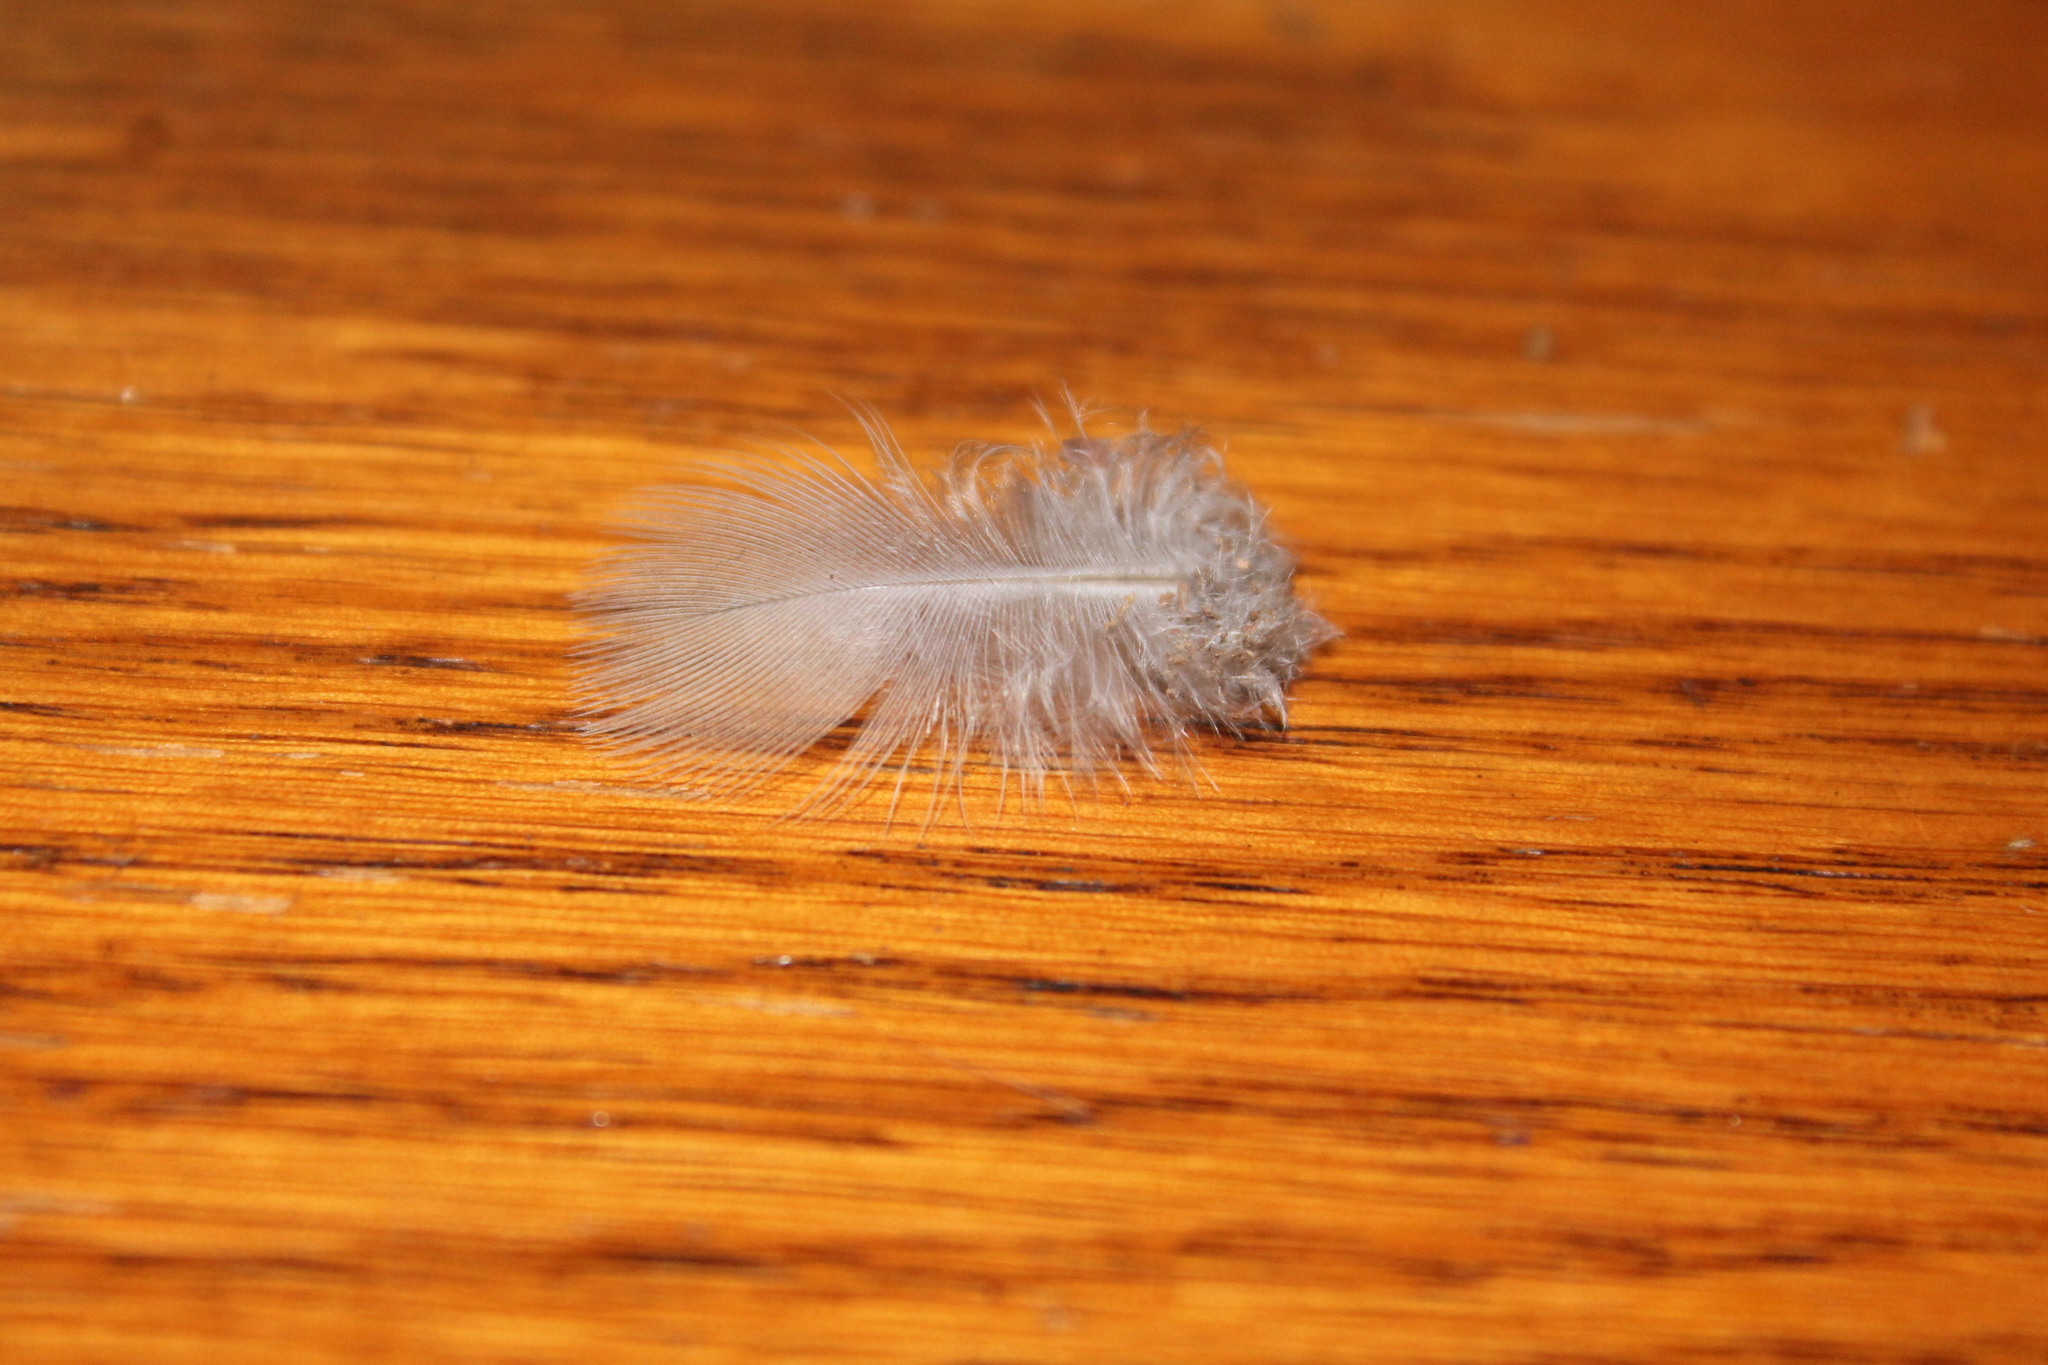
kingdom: Animalia
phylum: Chordata
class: Aves
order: Columbiformes
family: Columbidae
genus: Zenaida
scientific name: Zenaida macroura
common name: Mourning dove
